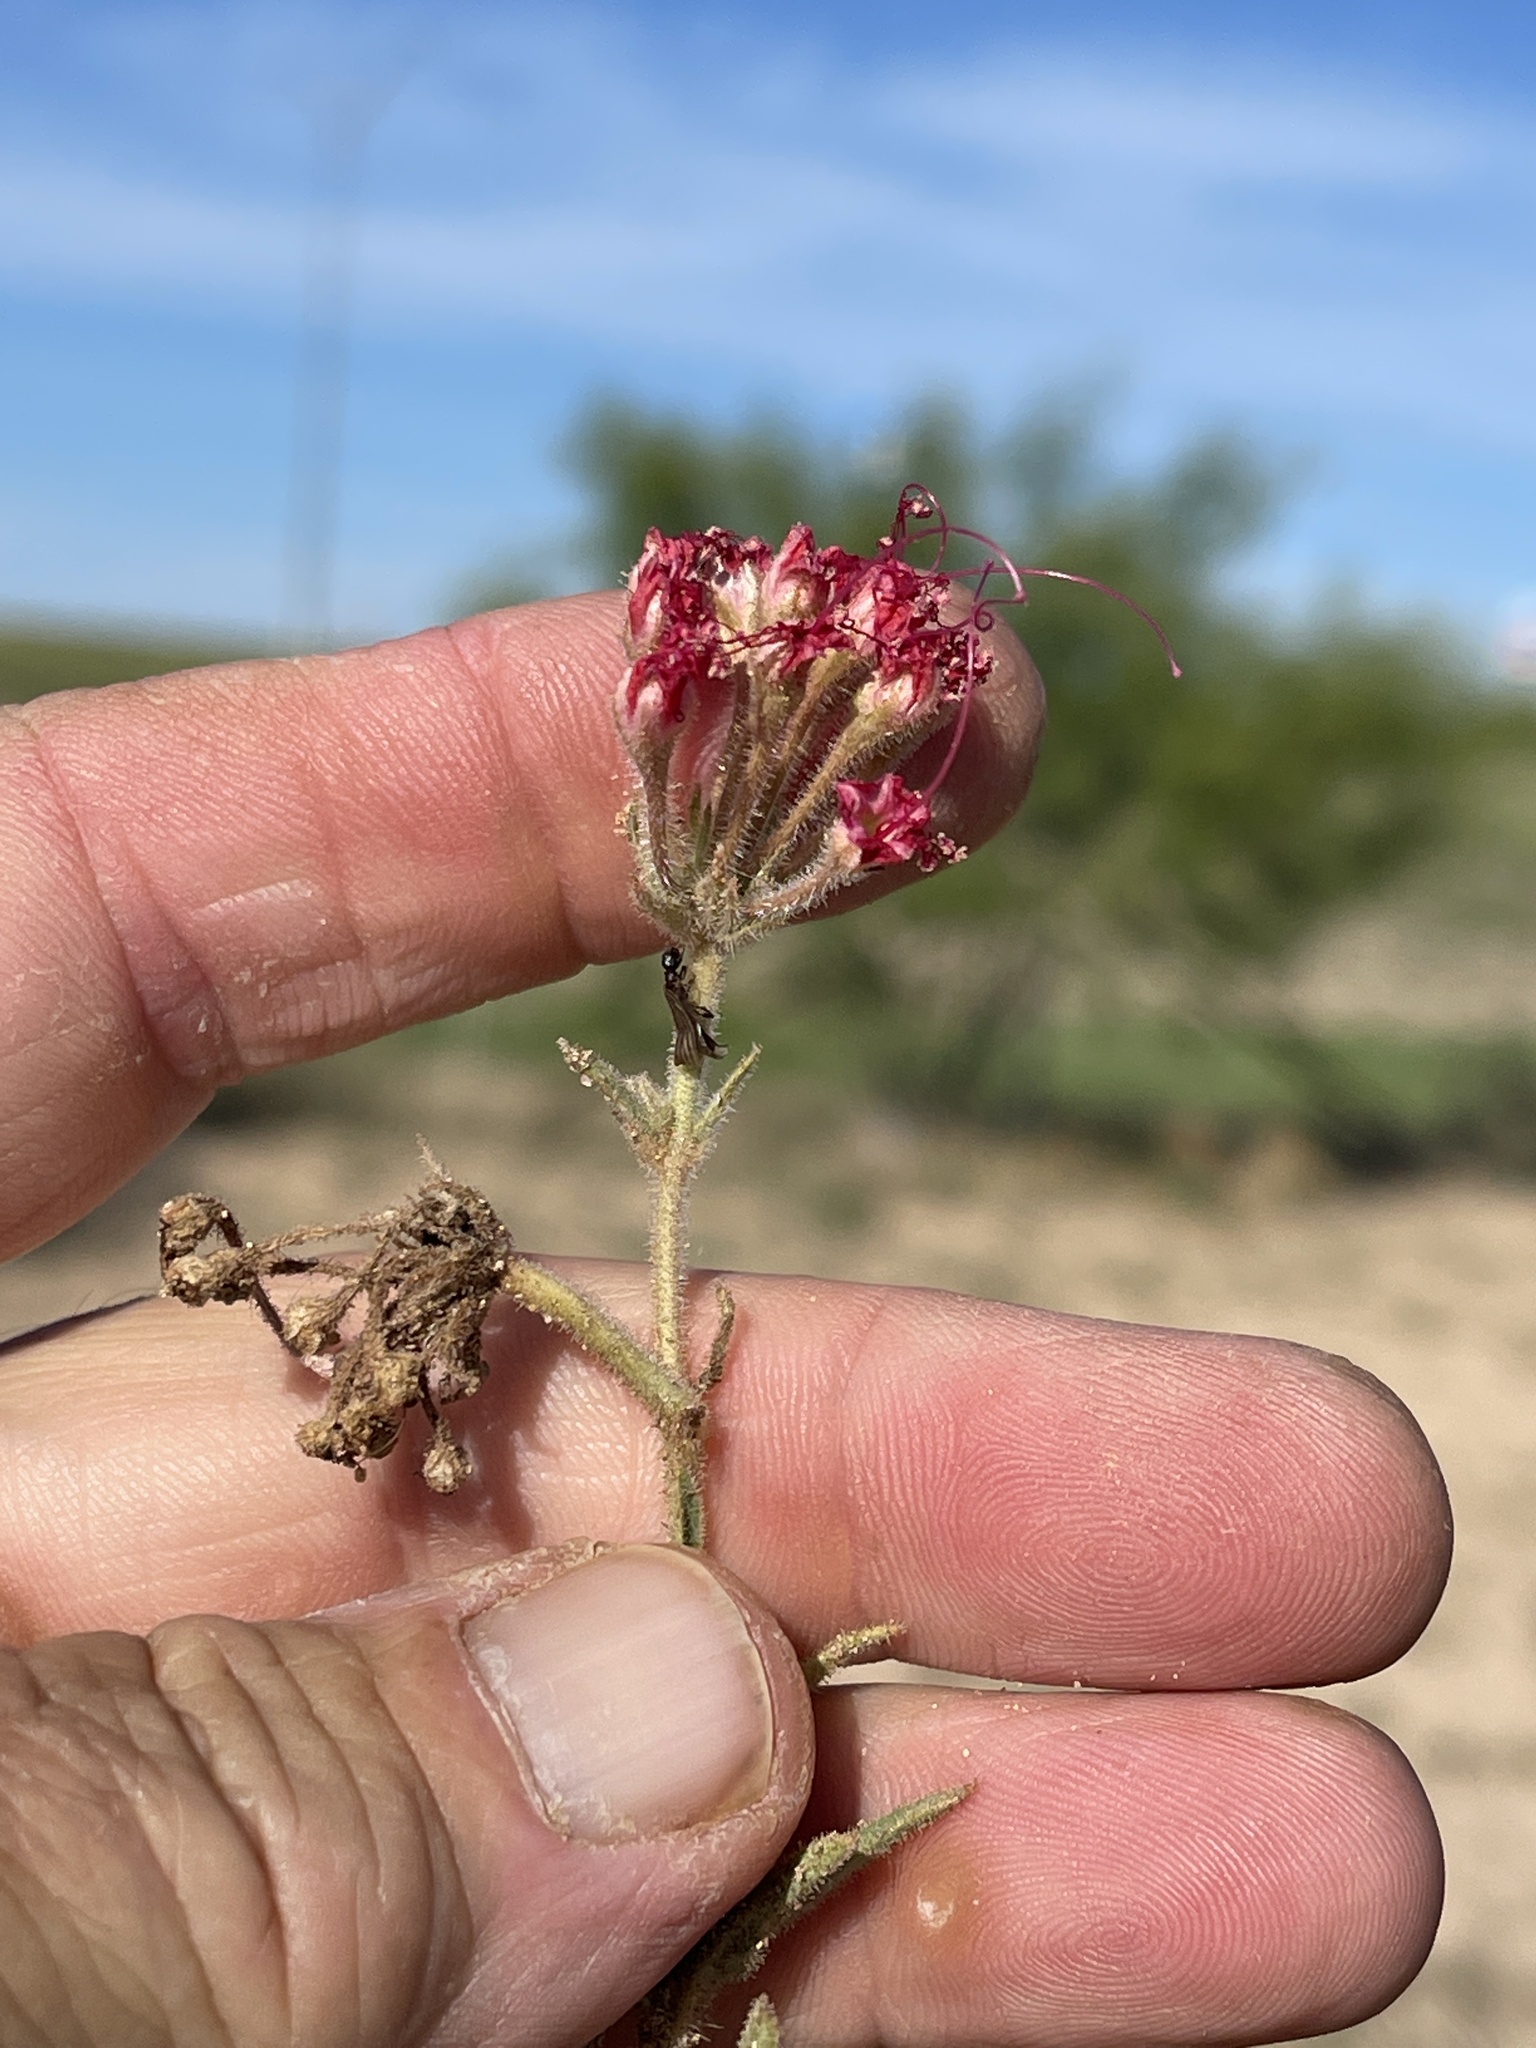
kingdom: Plantae
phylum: Tracheophyta
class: Magnoliopsida
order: Caryophyllales
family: Nyctaginaceae
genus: Nyctaginia
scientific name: Nyctaginia capitata
